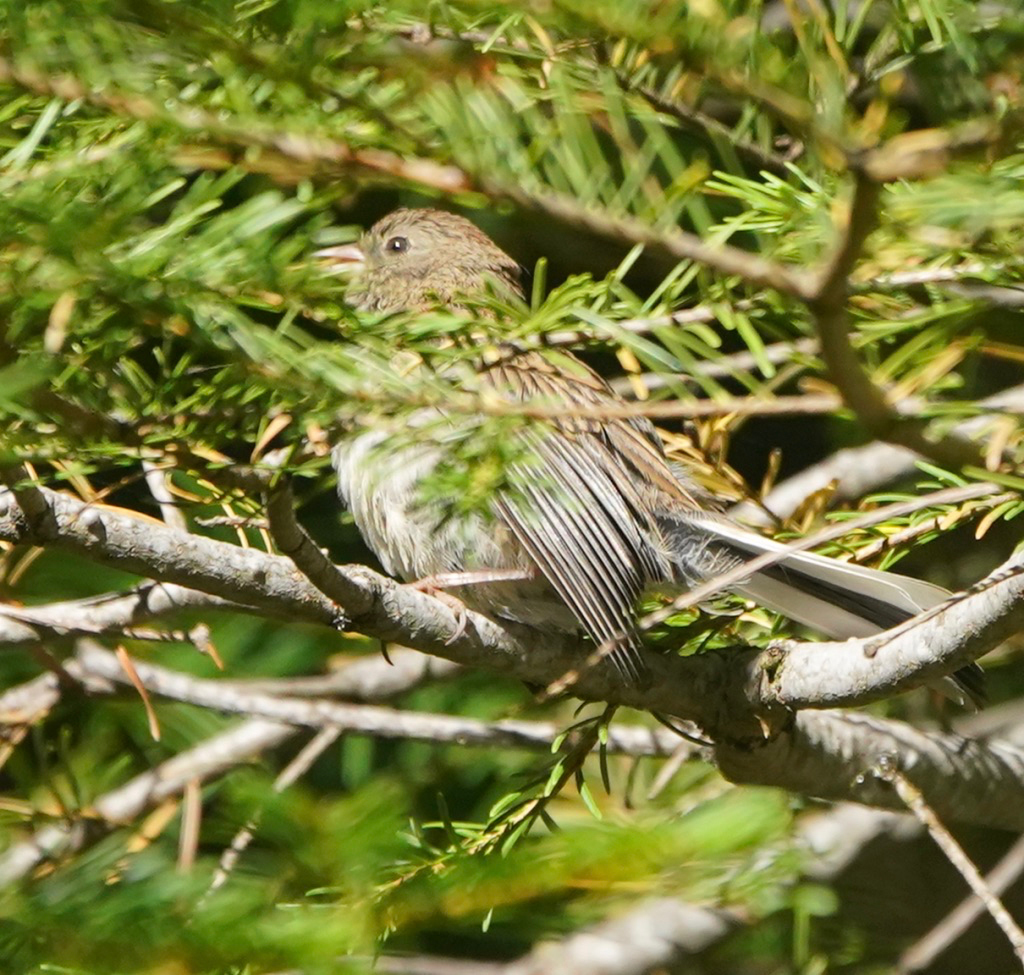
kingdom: Animalia
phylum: Chordata
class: Aves
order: Passeriformes
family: Passerellidae
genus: Junco
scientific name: Junco hyemalis
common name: Dark-eyed junco
